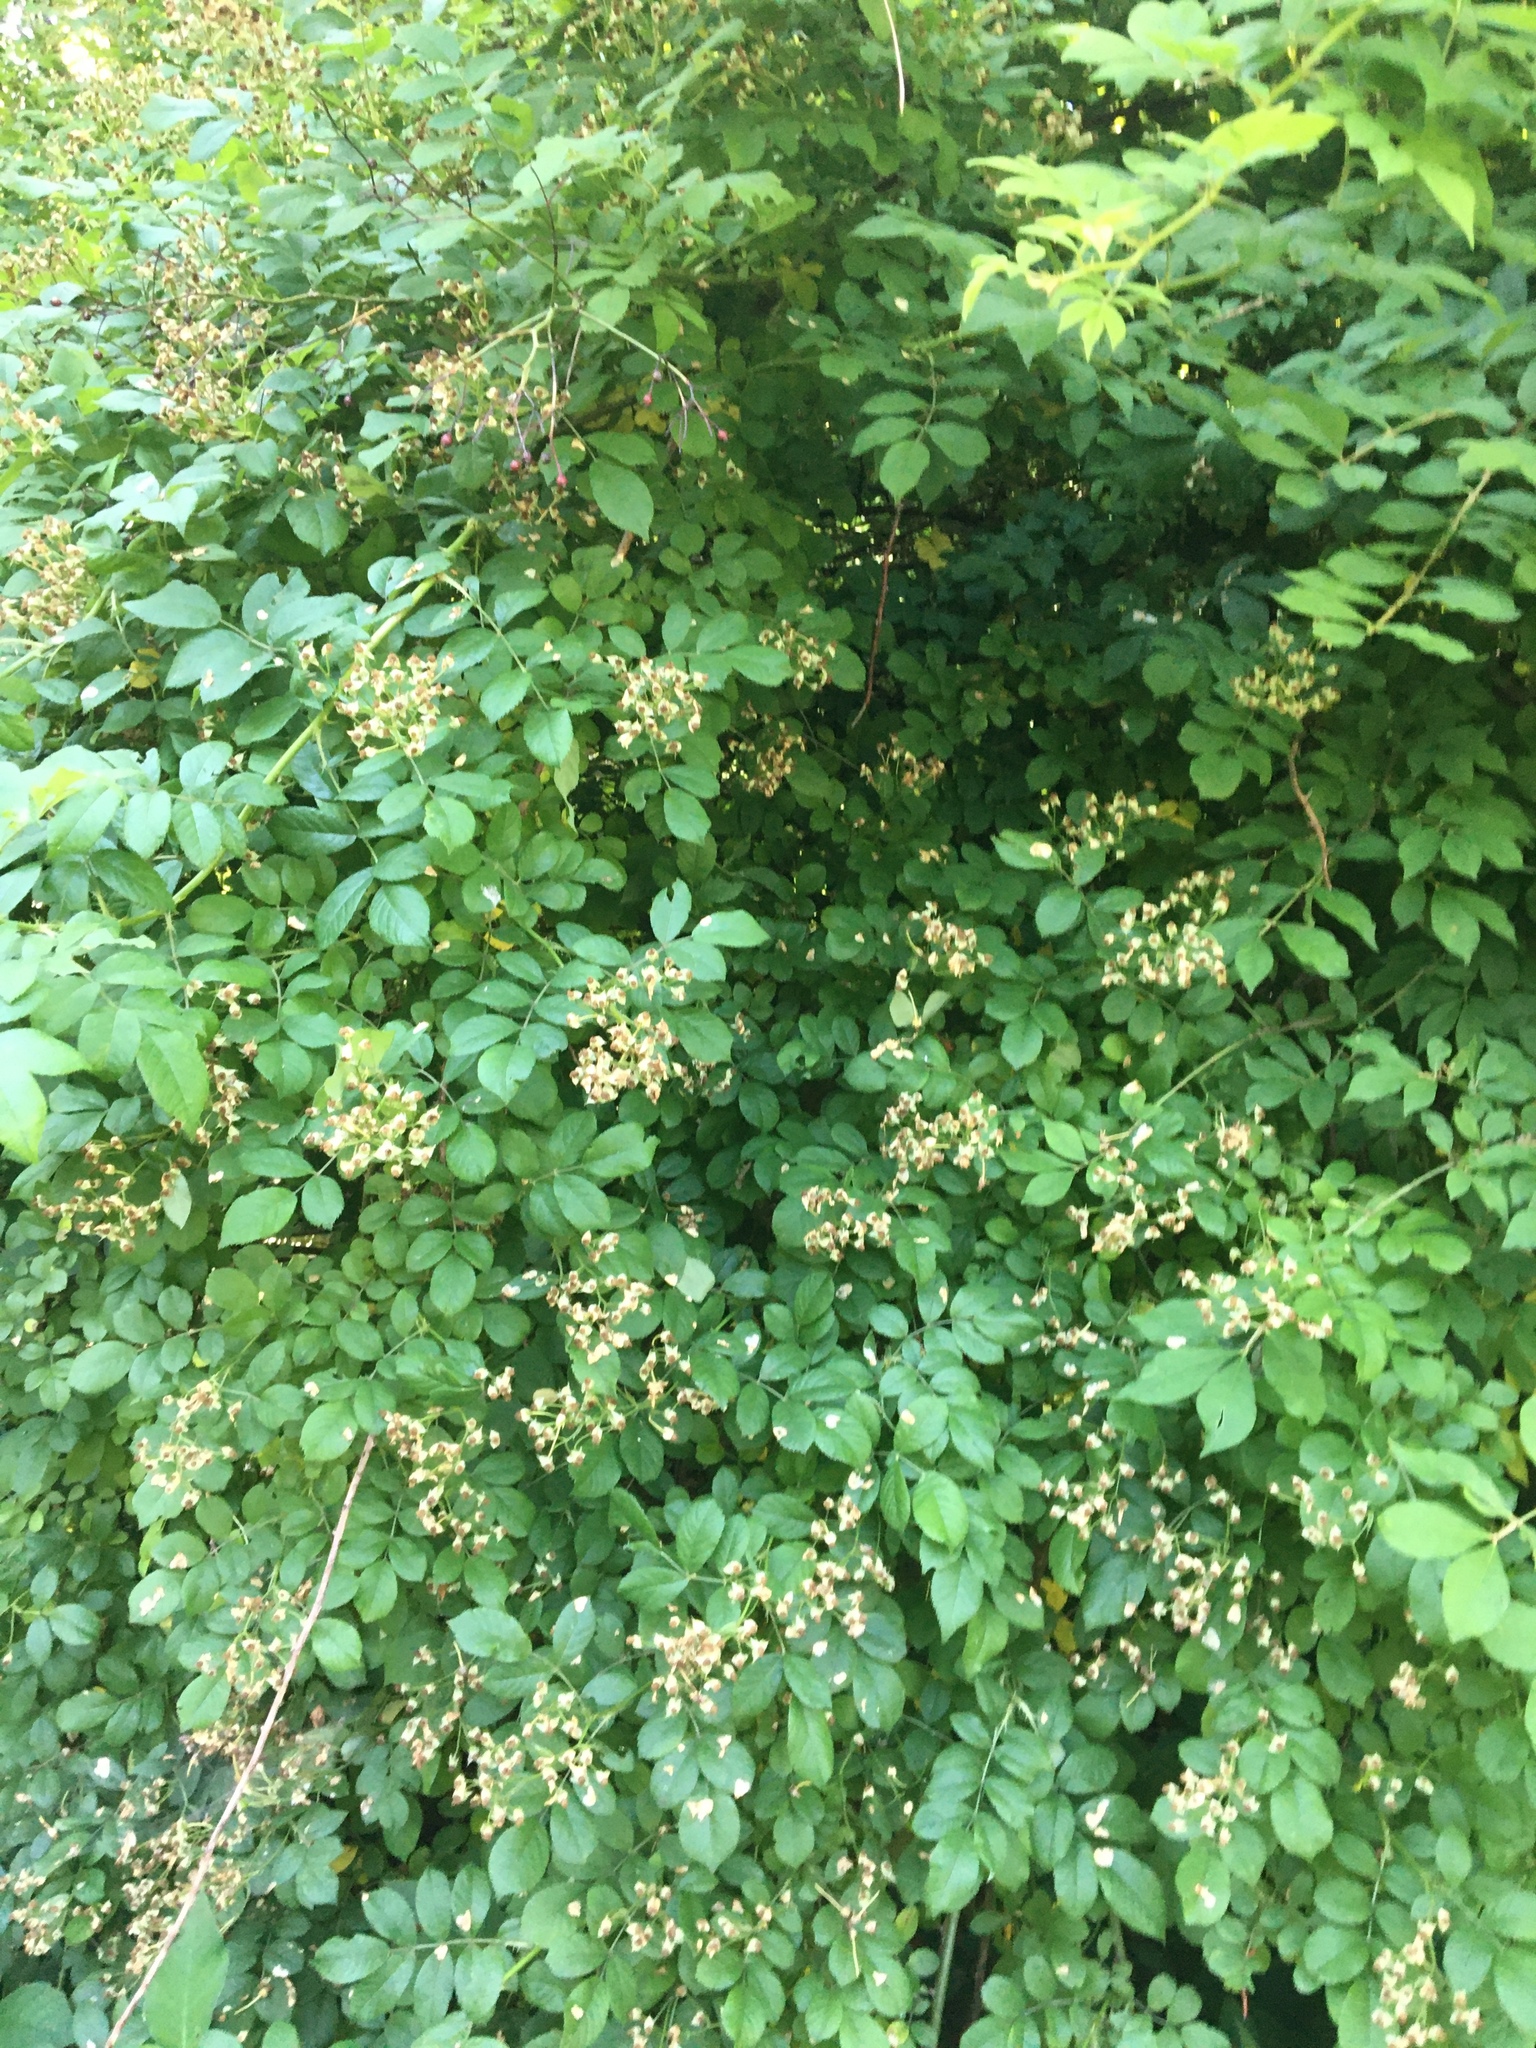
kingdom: Plantae
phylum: Tracheophyta
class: Magnoliopsida
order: Rosales
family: Rosaceae
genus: Rosa
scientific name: Rosa multiflora
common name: Multiflora rose
